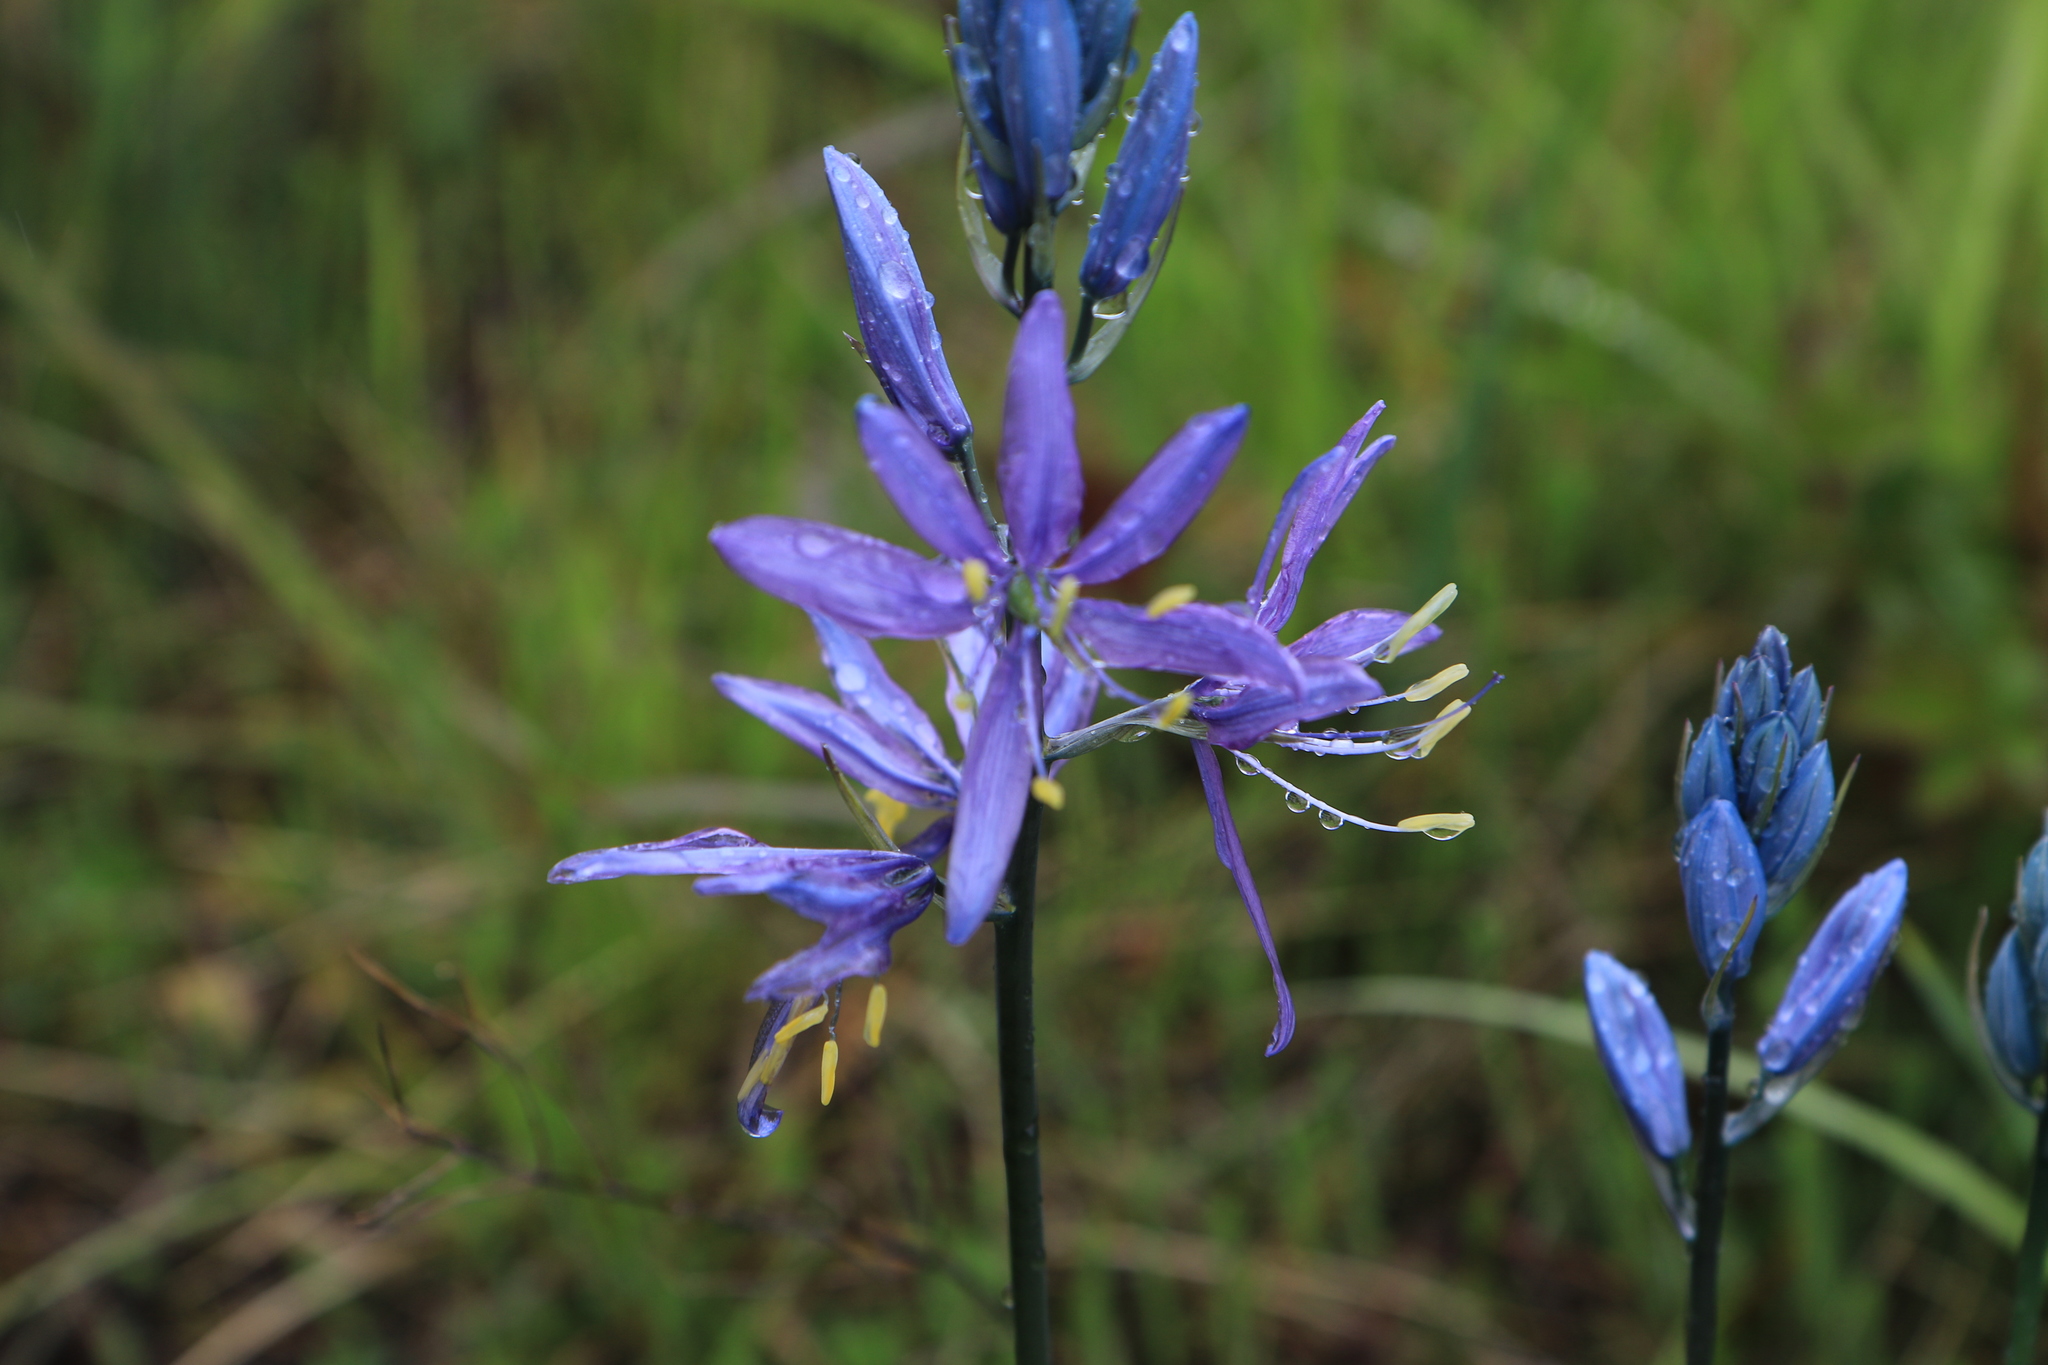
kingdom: Plantae
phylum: Tracheophyta
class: Liliopsida
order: Asparagales
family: Asparagaceae
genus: Camassia
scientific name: Camassia quamash
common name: Common camas
